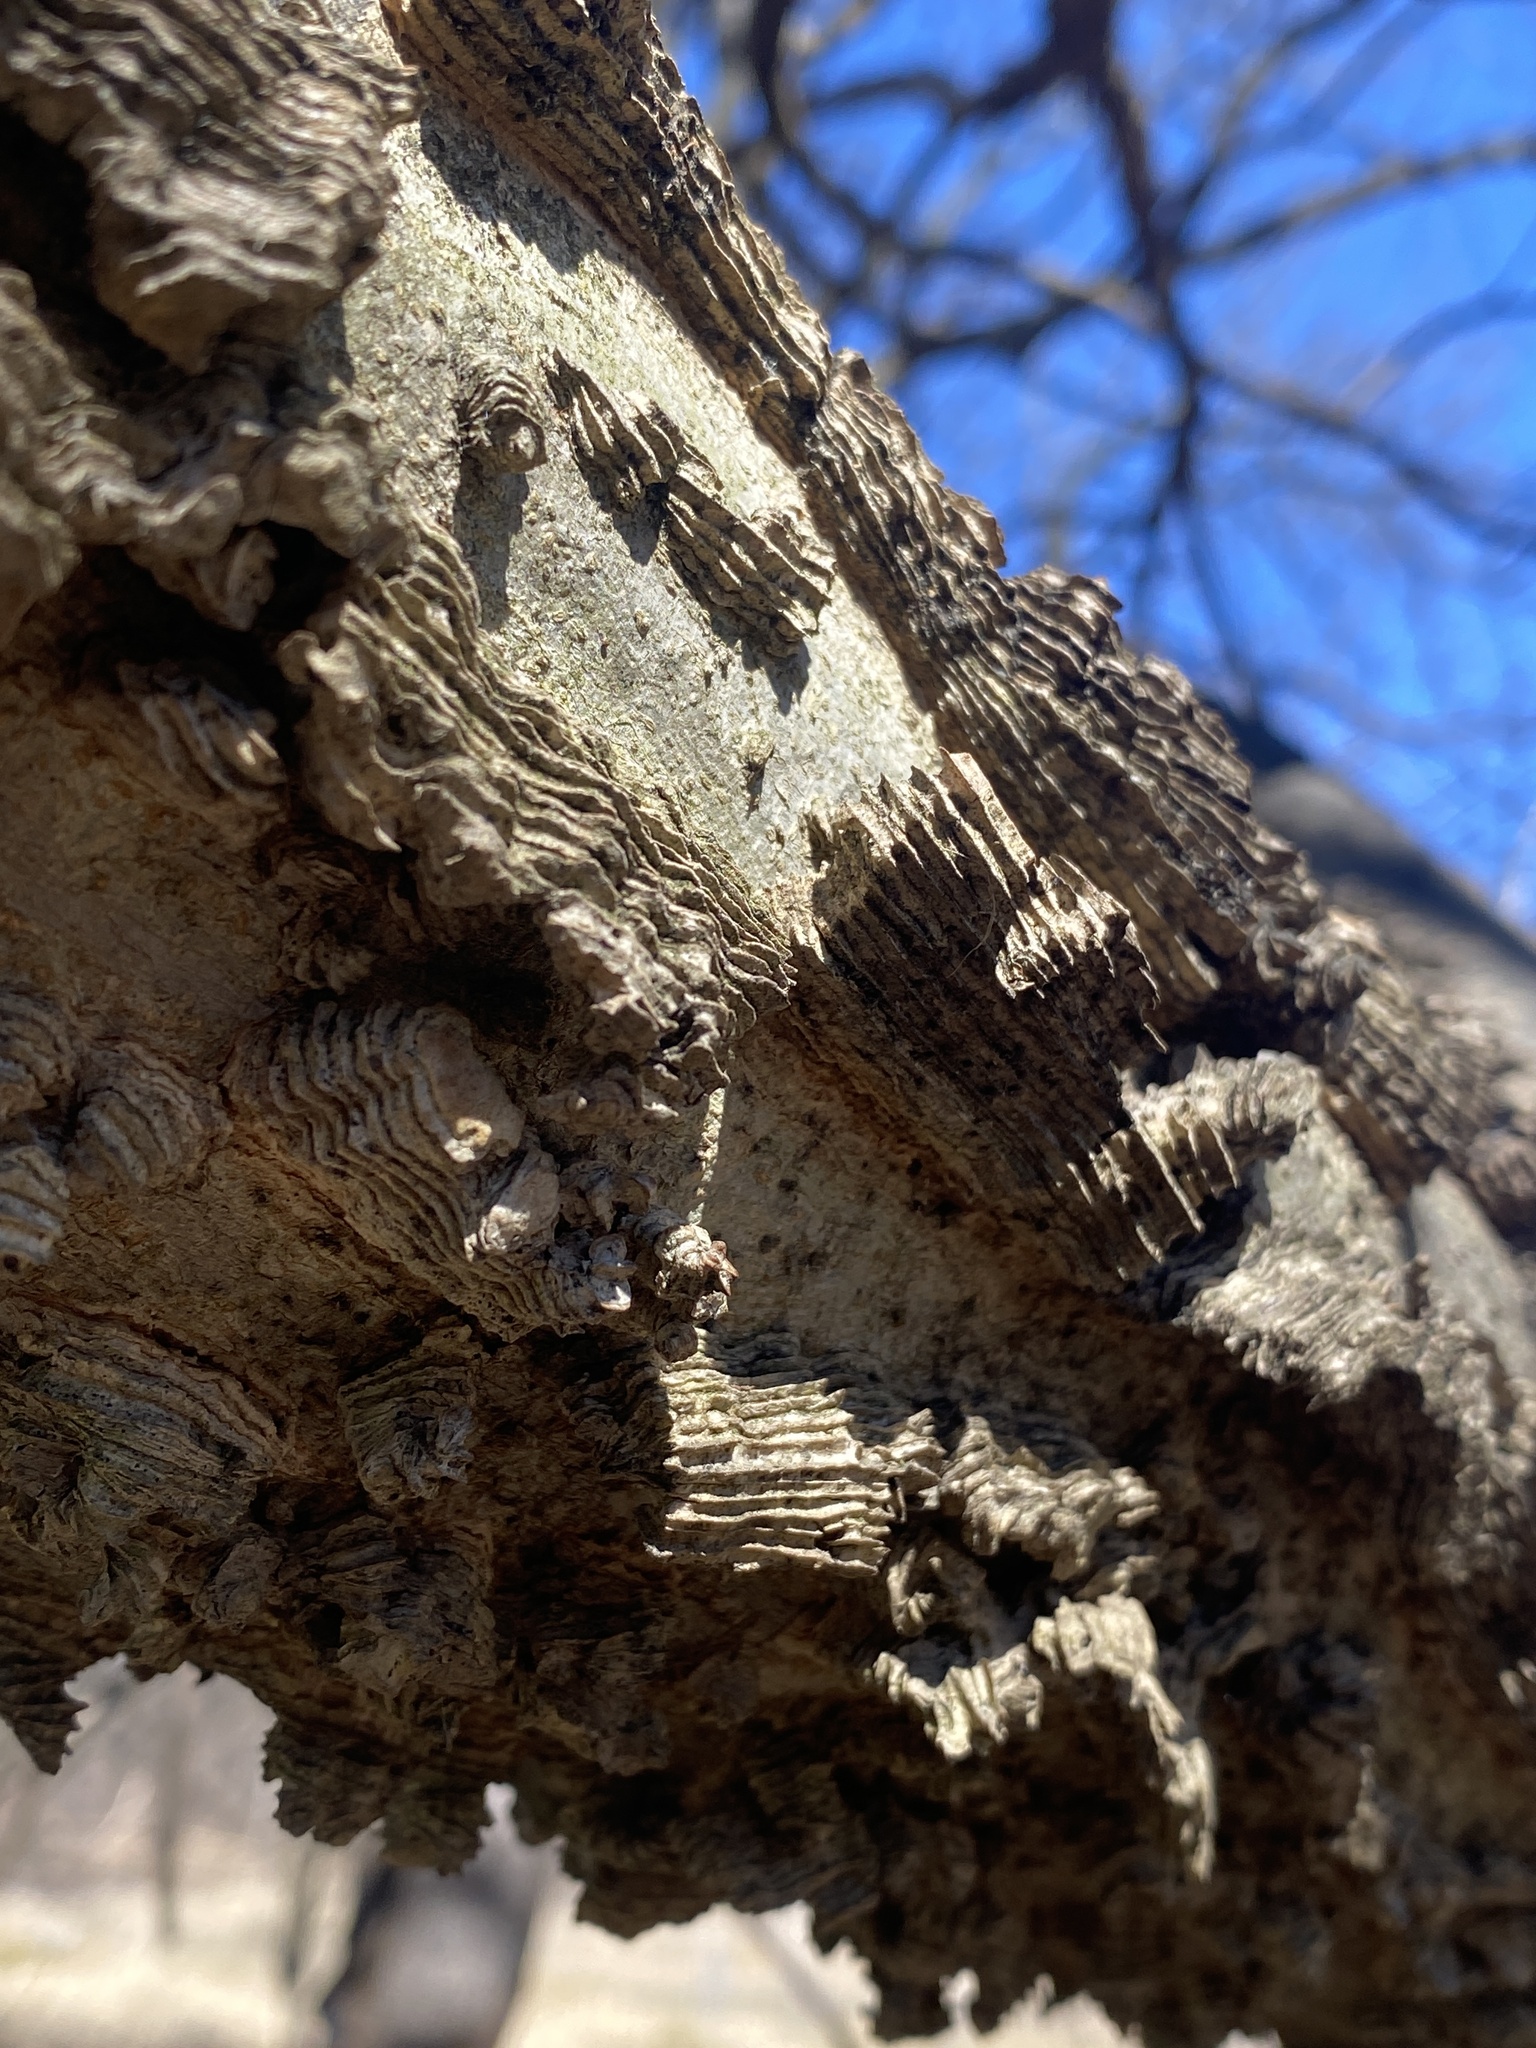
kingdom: Plantae
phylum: Tracheophyta
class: Magnoliopsida
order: Rosales
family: Cannabaceae
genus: Celtis
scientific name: Celtis occidentalis
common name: Common hackberry
